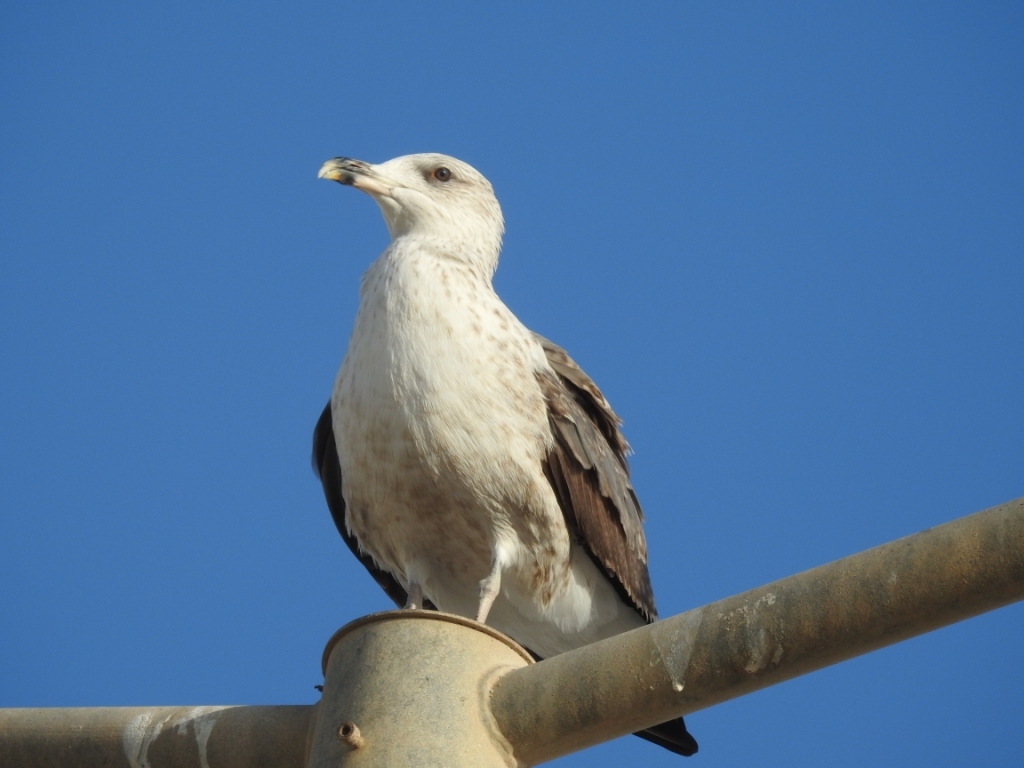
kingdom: Animalia
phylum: Chordata
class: Aves
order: Charadriiformes
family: Laridae
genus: Larus
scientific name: Larus michahellis
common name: Yellow-legged gull
